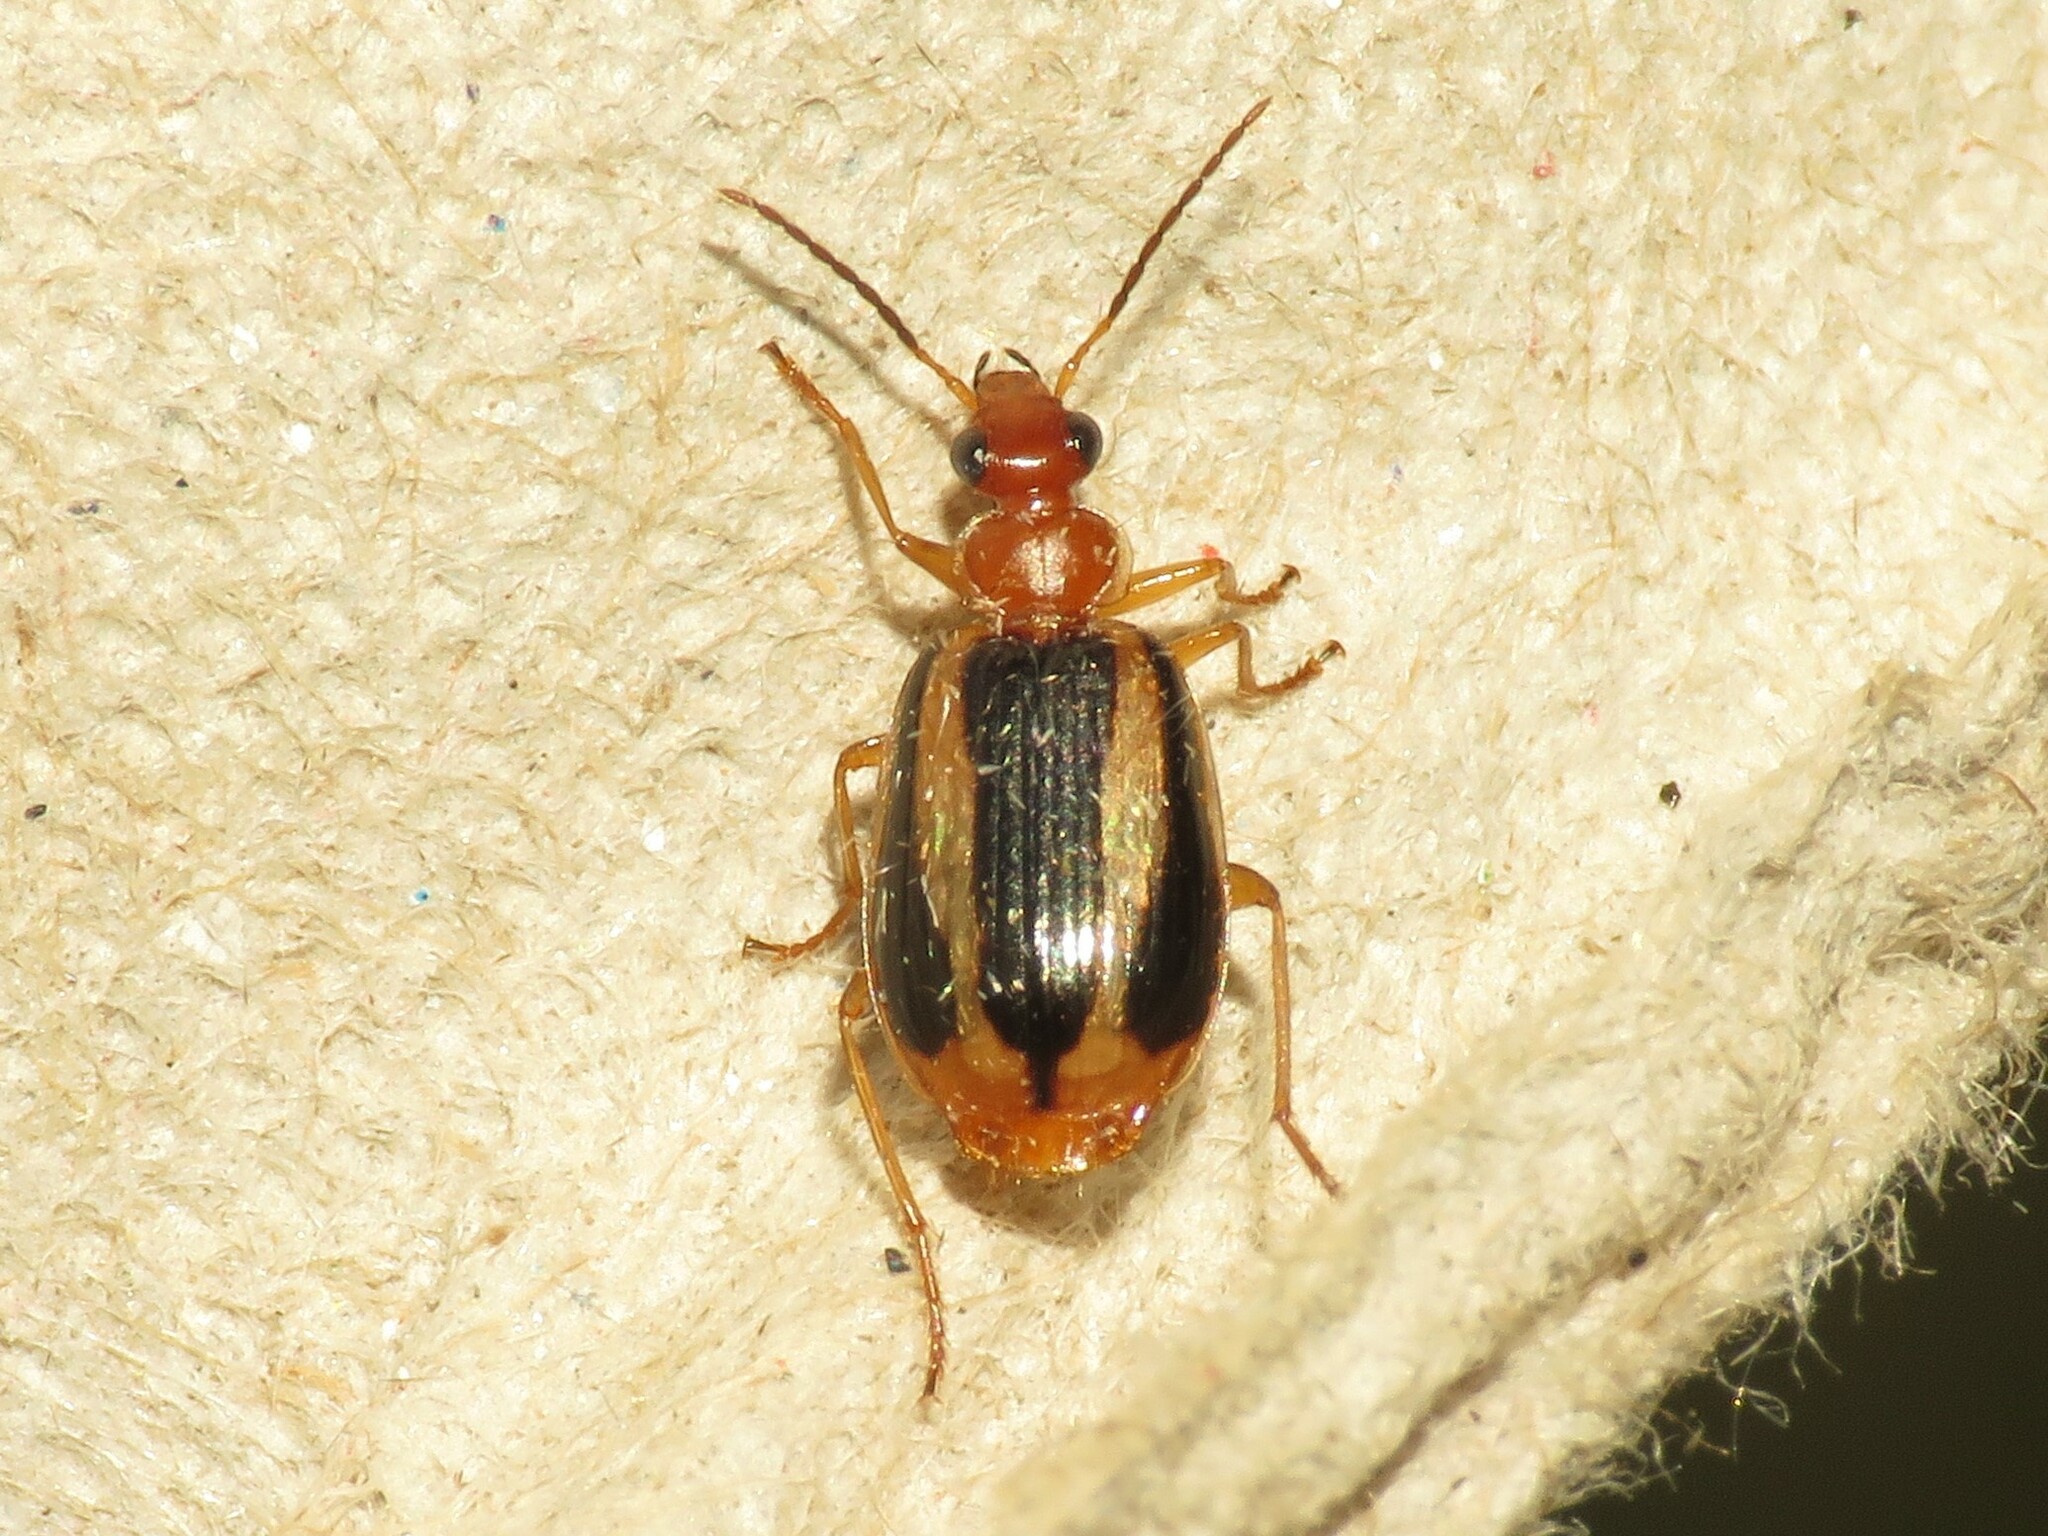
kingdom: Animalia
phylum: Arthropoda
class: Insecta
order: Coleoptera
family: Carabidae
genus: Lebia
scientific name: Lebia solea
